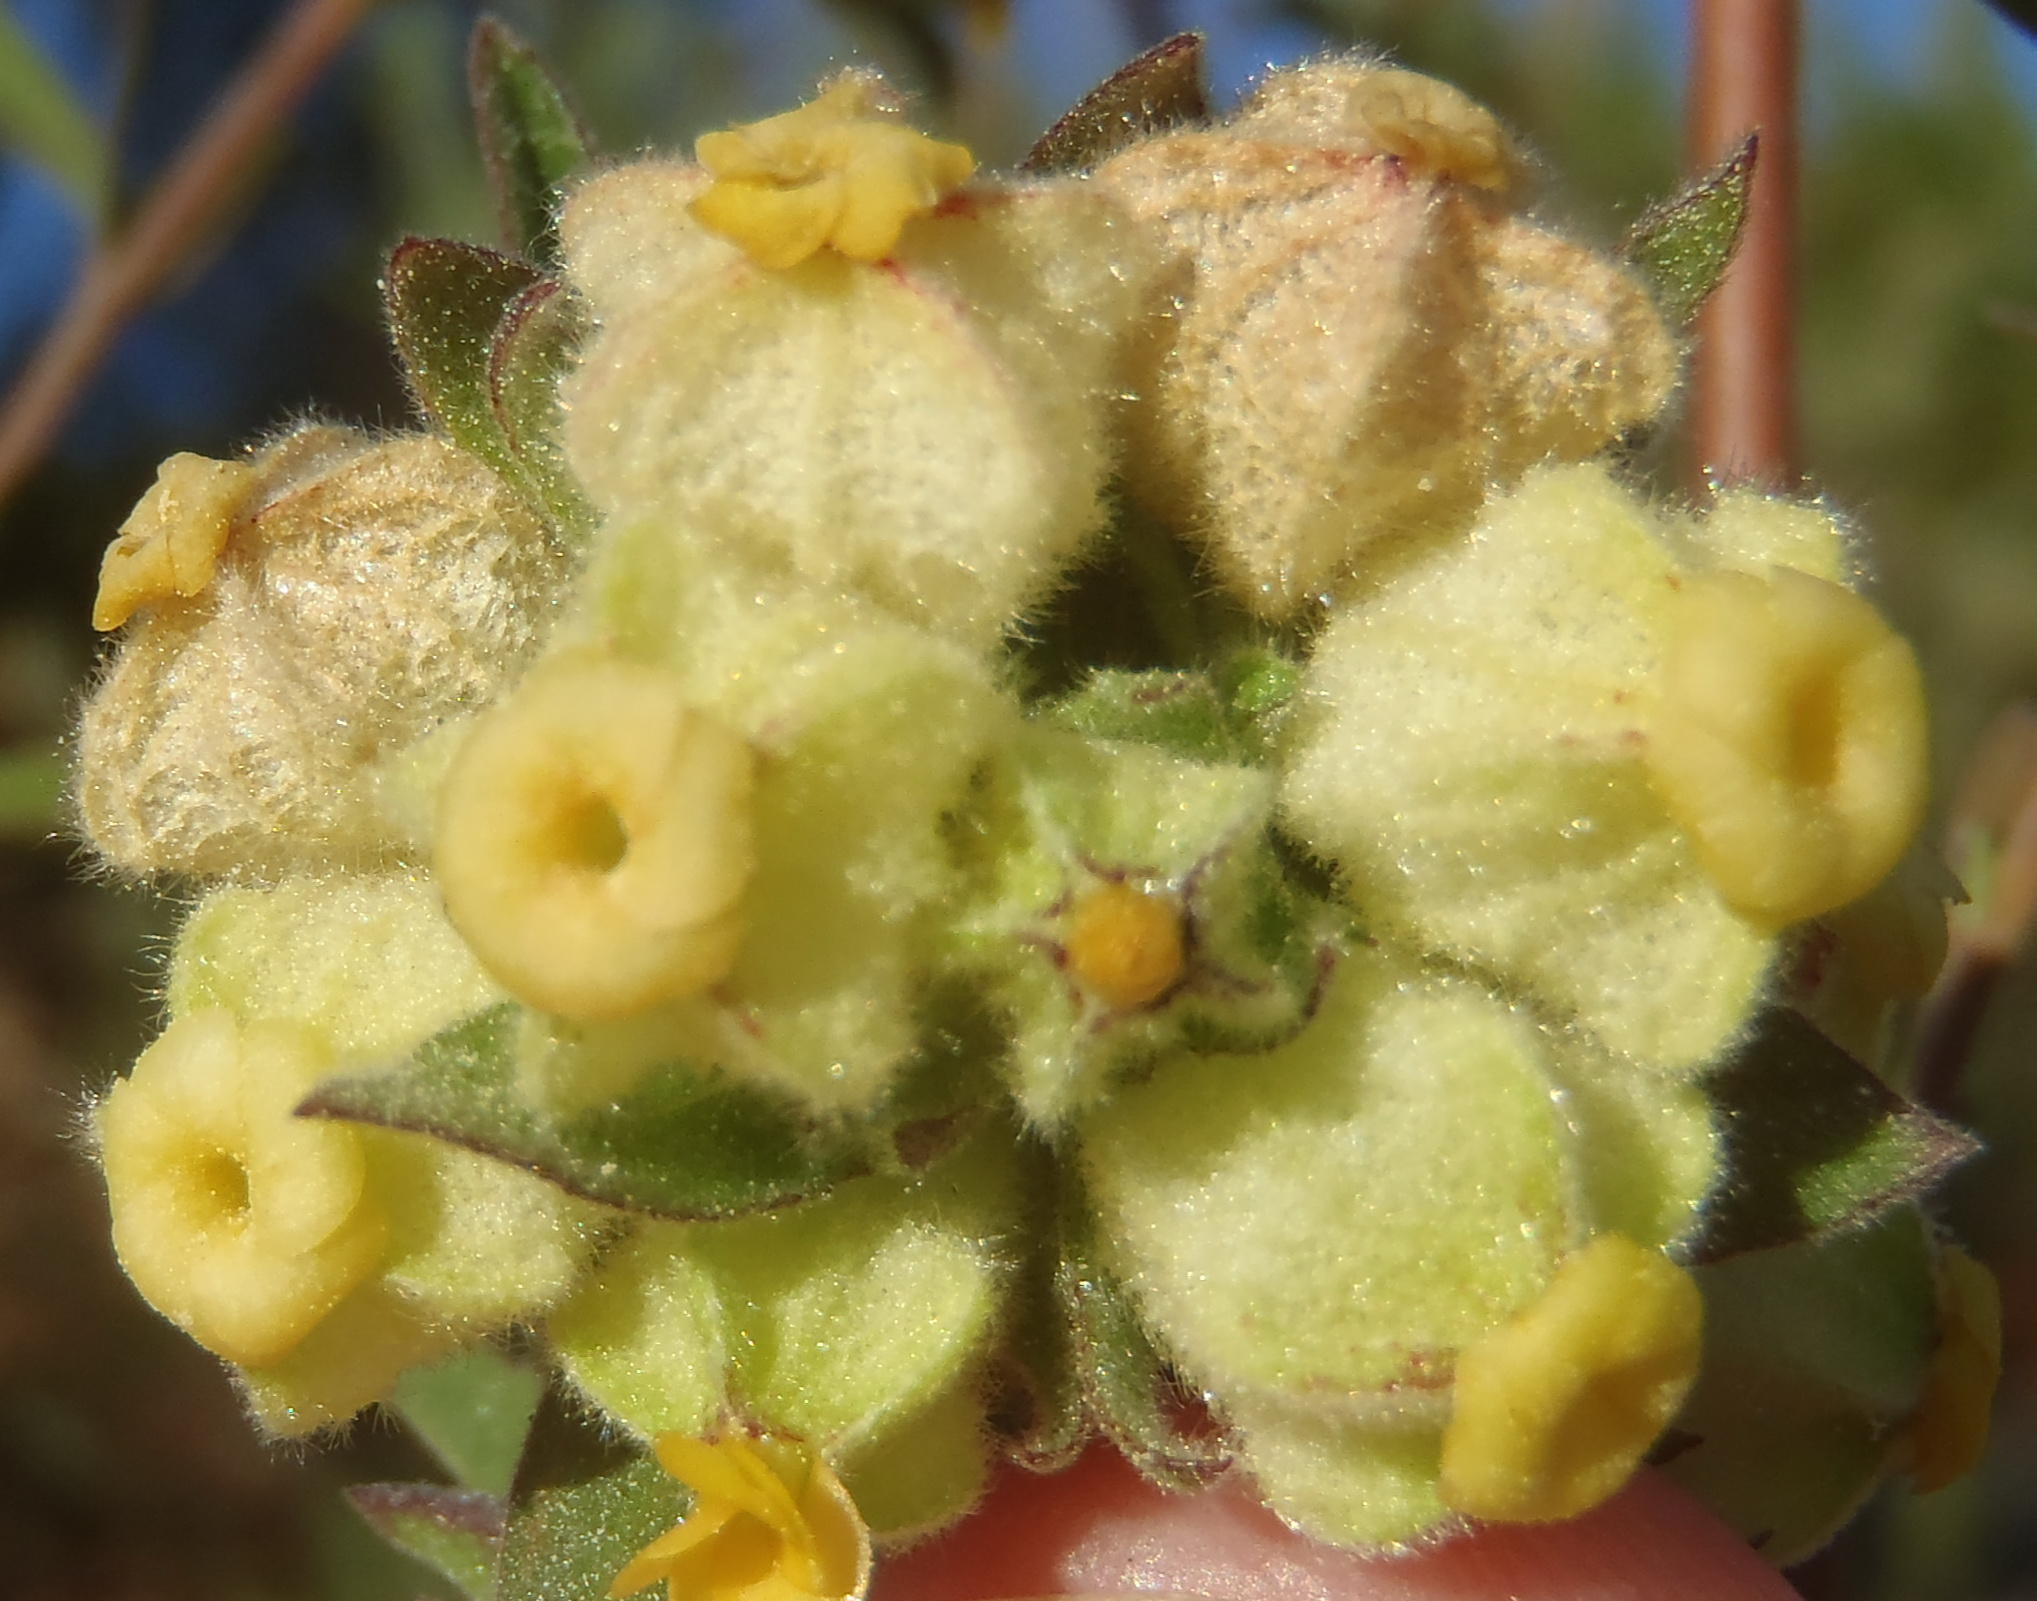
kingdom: Plantae
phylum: Tracheophyta
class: Magnoliopsida
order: Malvales
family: Malvaceae
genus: Hermannia
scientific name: Hermannia hyssopifolia
